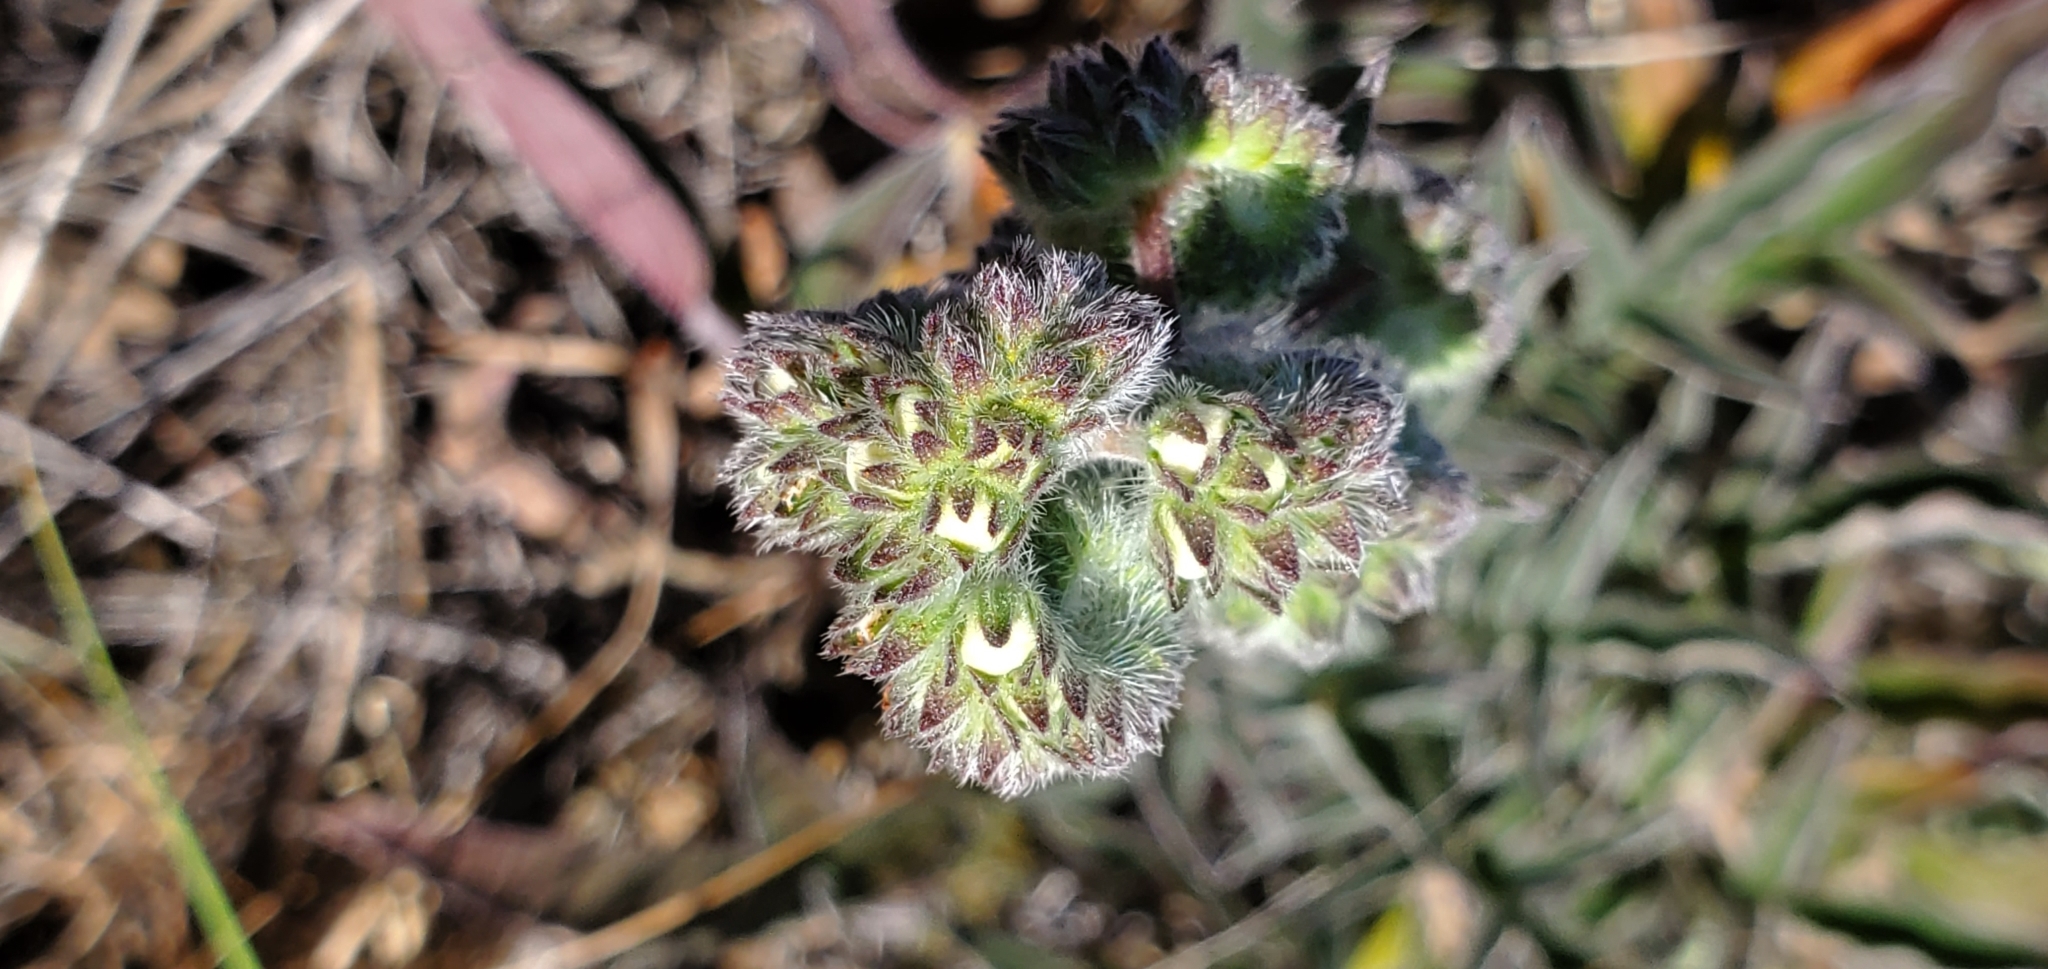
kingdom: Plantae
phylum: Tracheophyta
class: Magnoliopsida
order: Boraginales
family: Hydrophyllaceae
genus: Phacelia
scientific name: Phacelia imbricata
